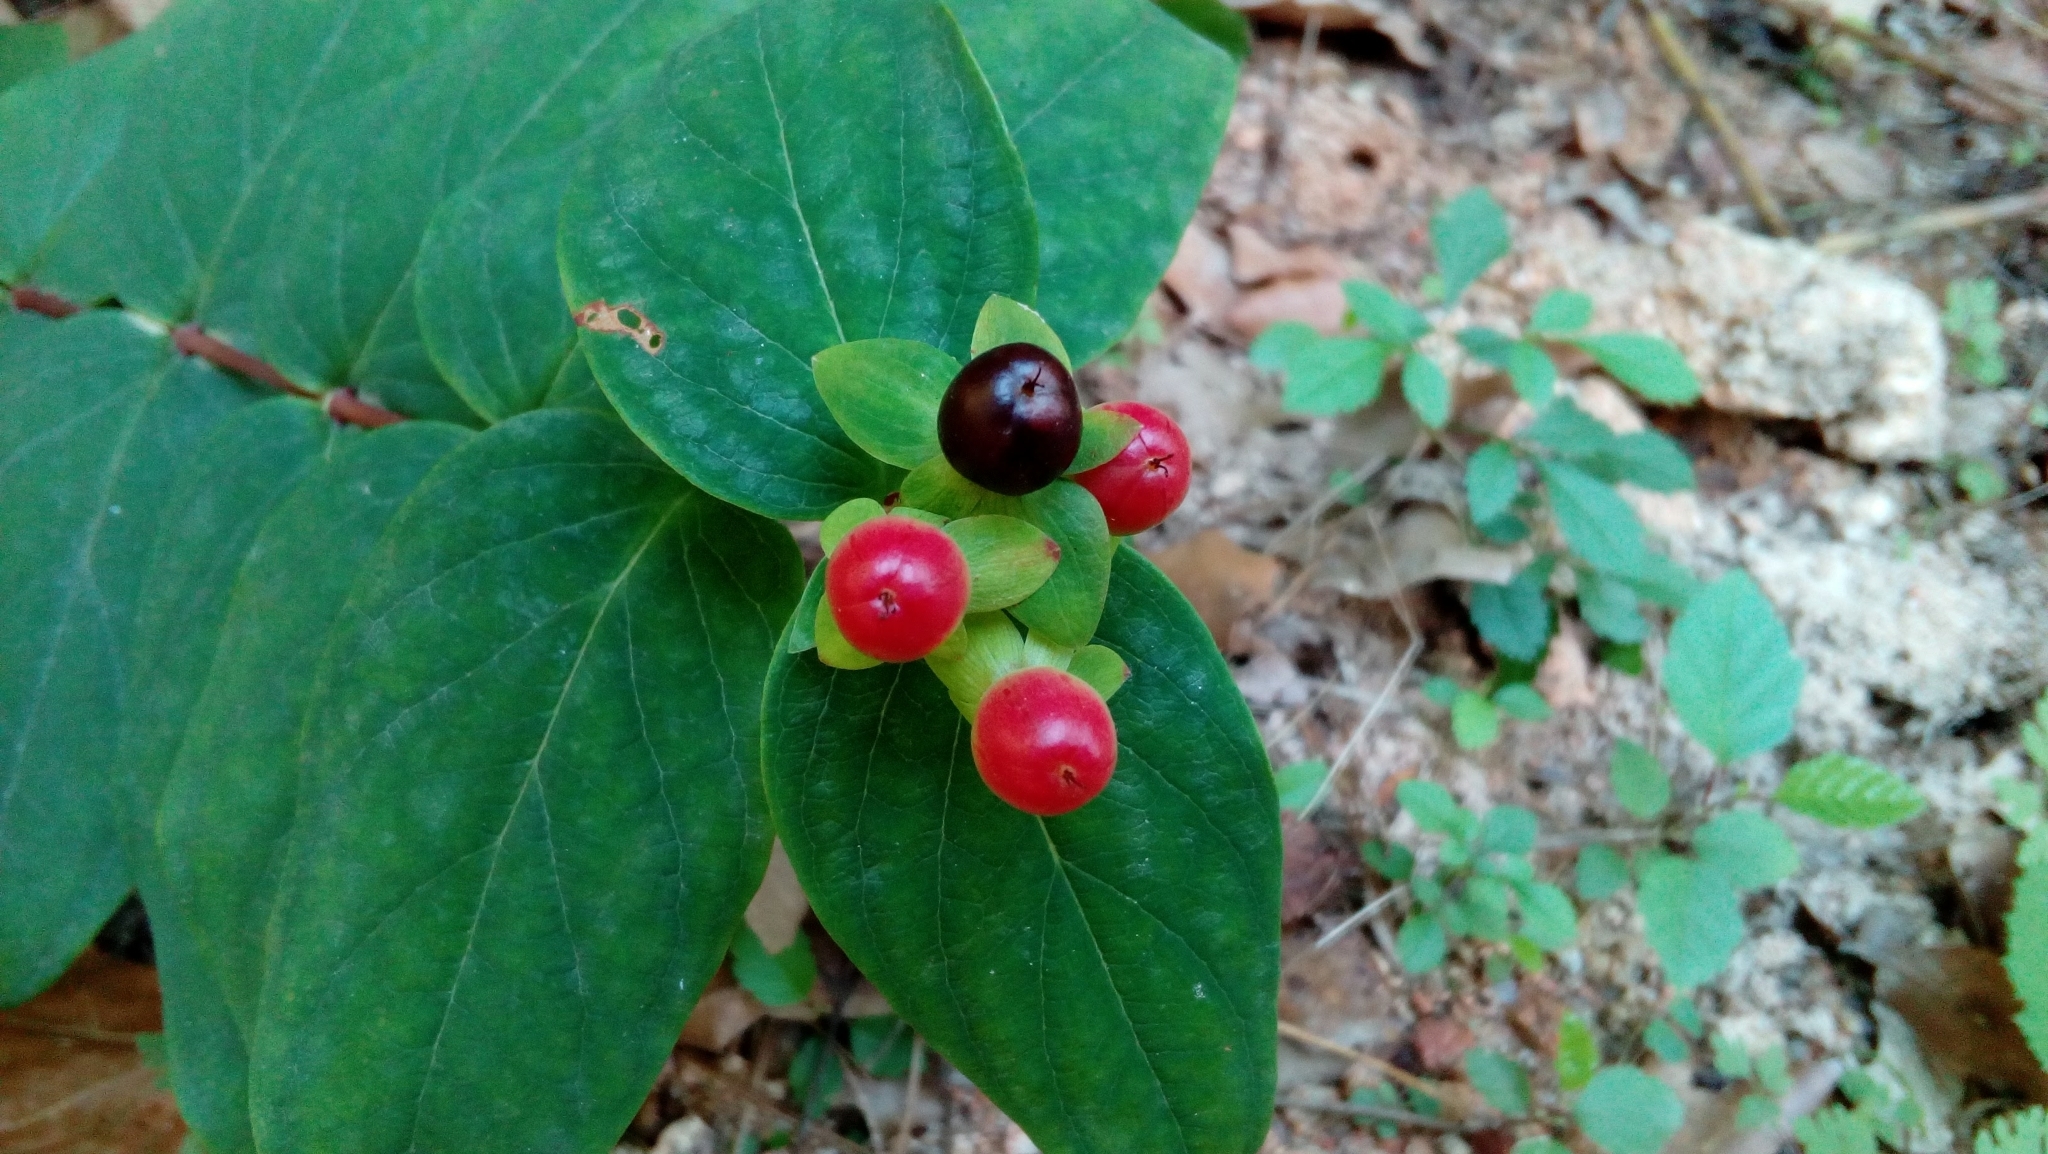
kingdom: Plantae
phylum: Tracheophyta
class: Magnoliopsida
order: Malpighiales
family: Hypericaceae
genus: Hypericum
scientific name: Hypericum androsaemum
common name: Sweet-amber
